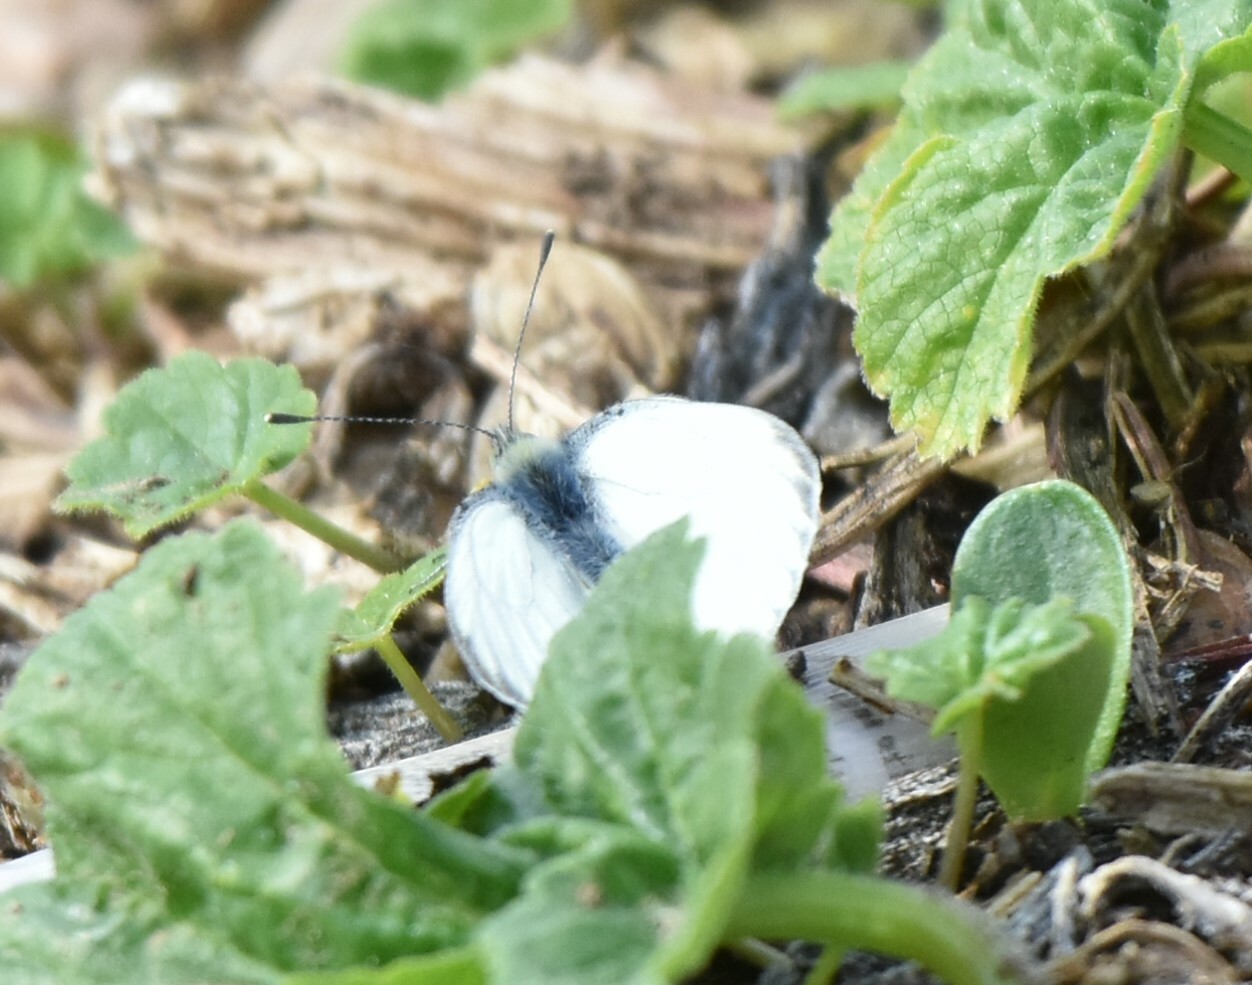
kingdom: Animalia
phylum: Arthropoda
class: Insecta
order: Lepidoptera
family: Pieridae
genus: Pieris
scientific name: Pieris napi
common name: Green-veined white
